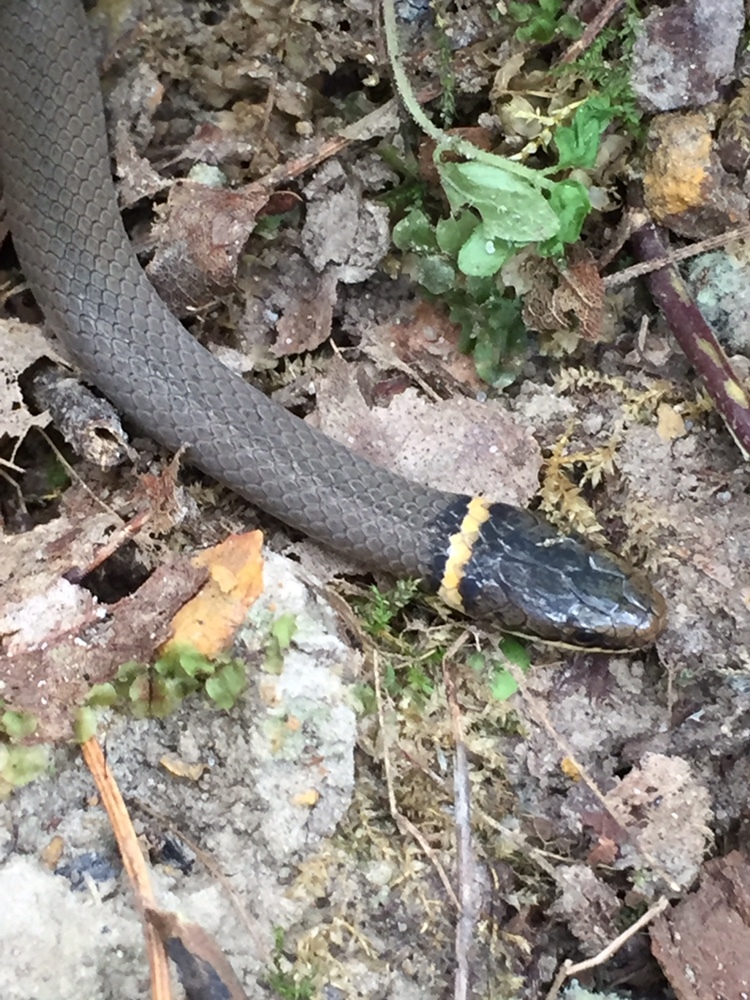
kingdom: Animalia
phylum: Chordata
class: Squamata
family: Colubridae
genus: Diadophis
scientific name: Diadophis punctatus
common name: Ringneck snake
